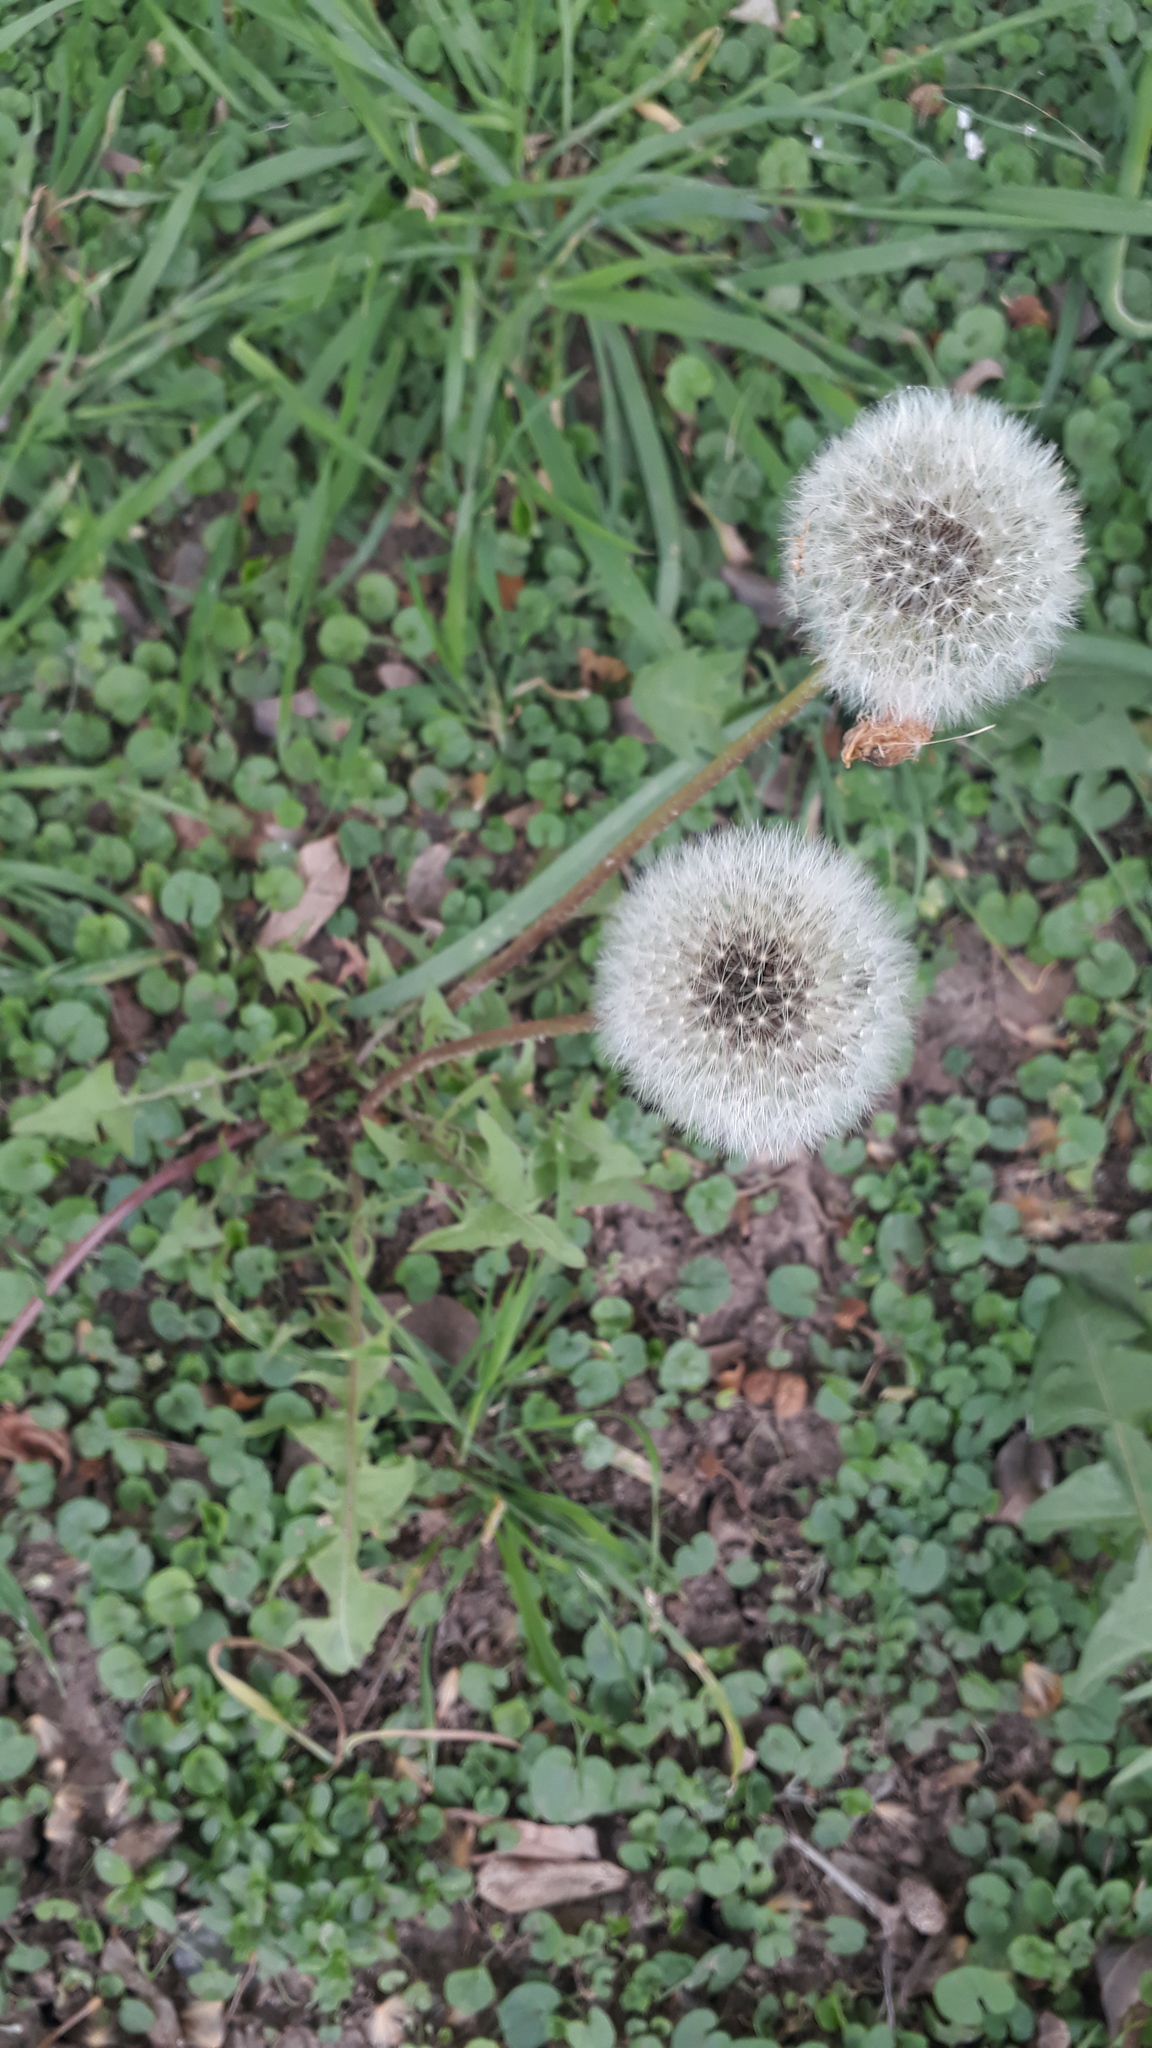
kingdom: Plantae
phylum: Tracheophyta
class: Magnoliopsida
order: Asterales
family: Asteraceae
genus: Taraxacum
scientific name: Taraxacum officinale
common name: Common dandelion
